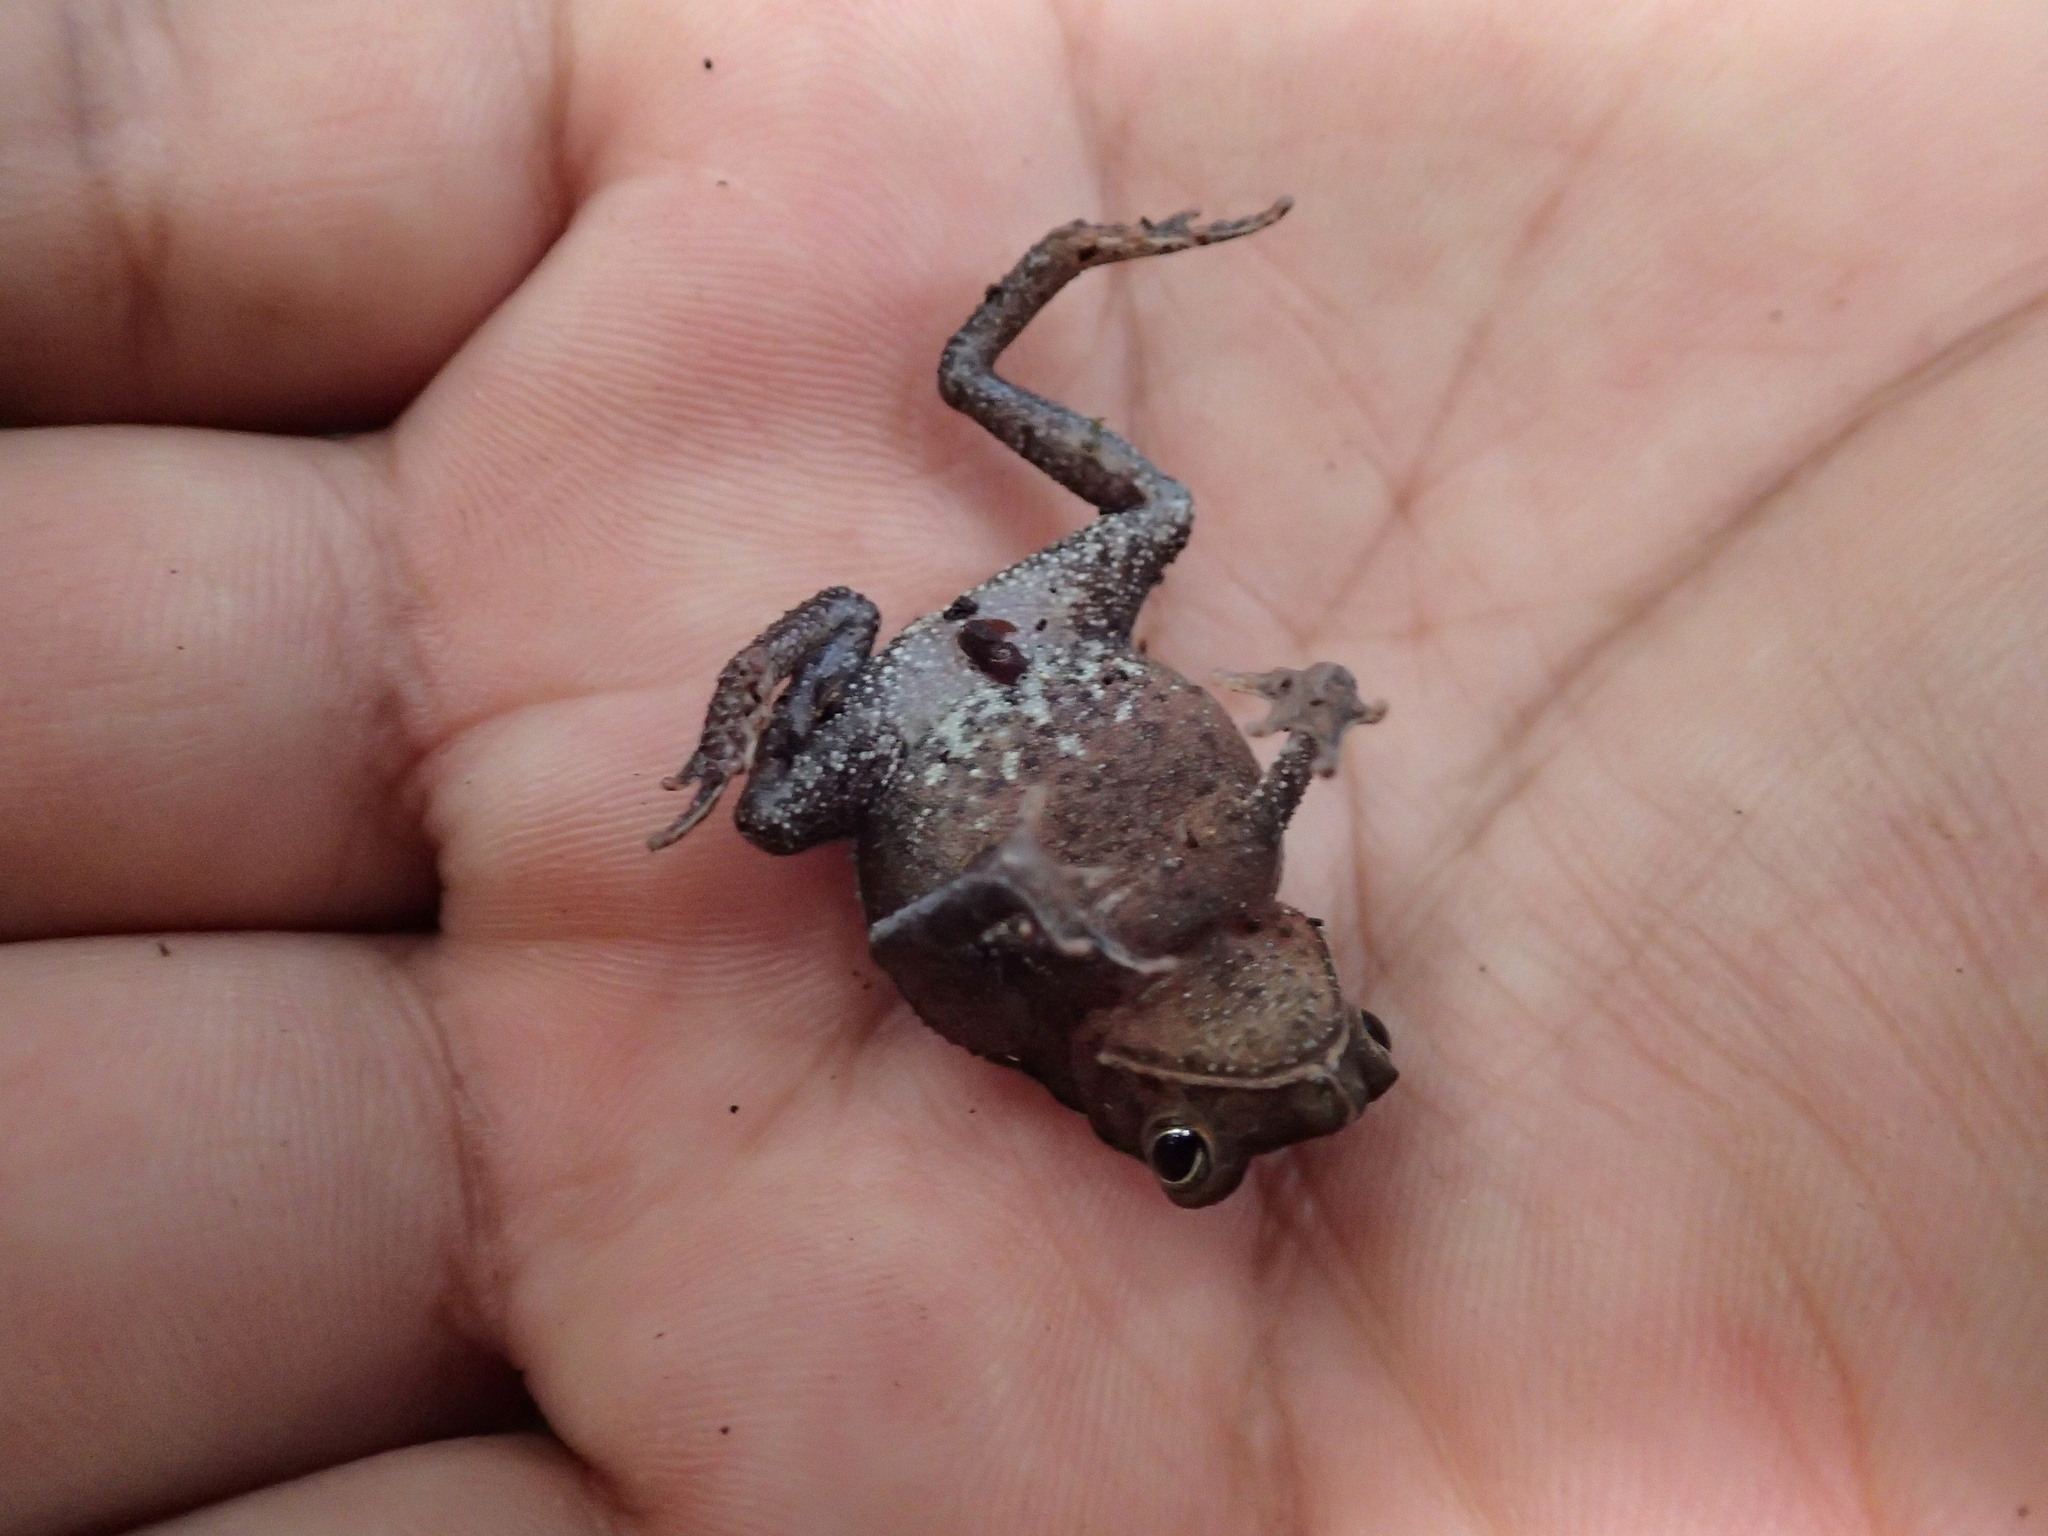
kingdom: Animalia
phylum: Chordata
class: Amphibia
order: Anura
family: Bufonidae
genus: Rhinella
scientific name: Rhinella margaritifera
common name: Mitred toad
